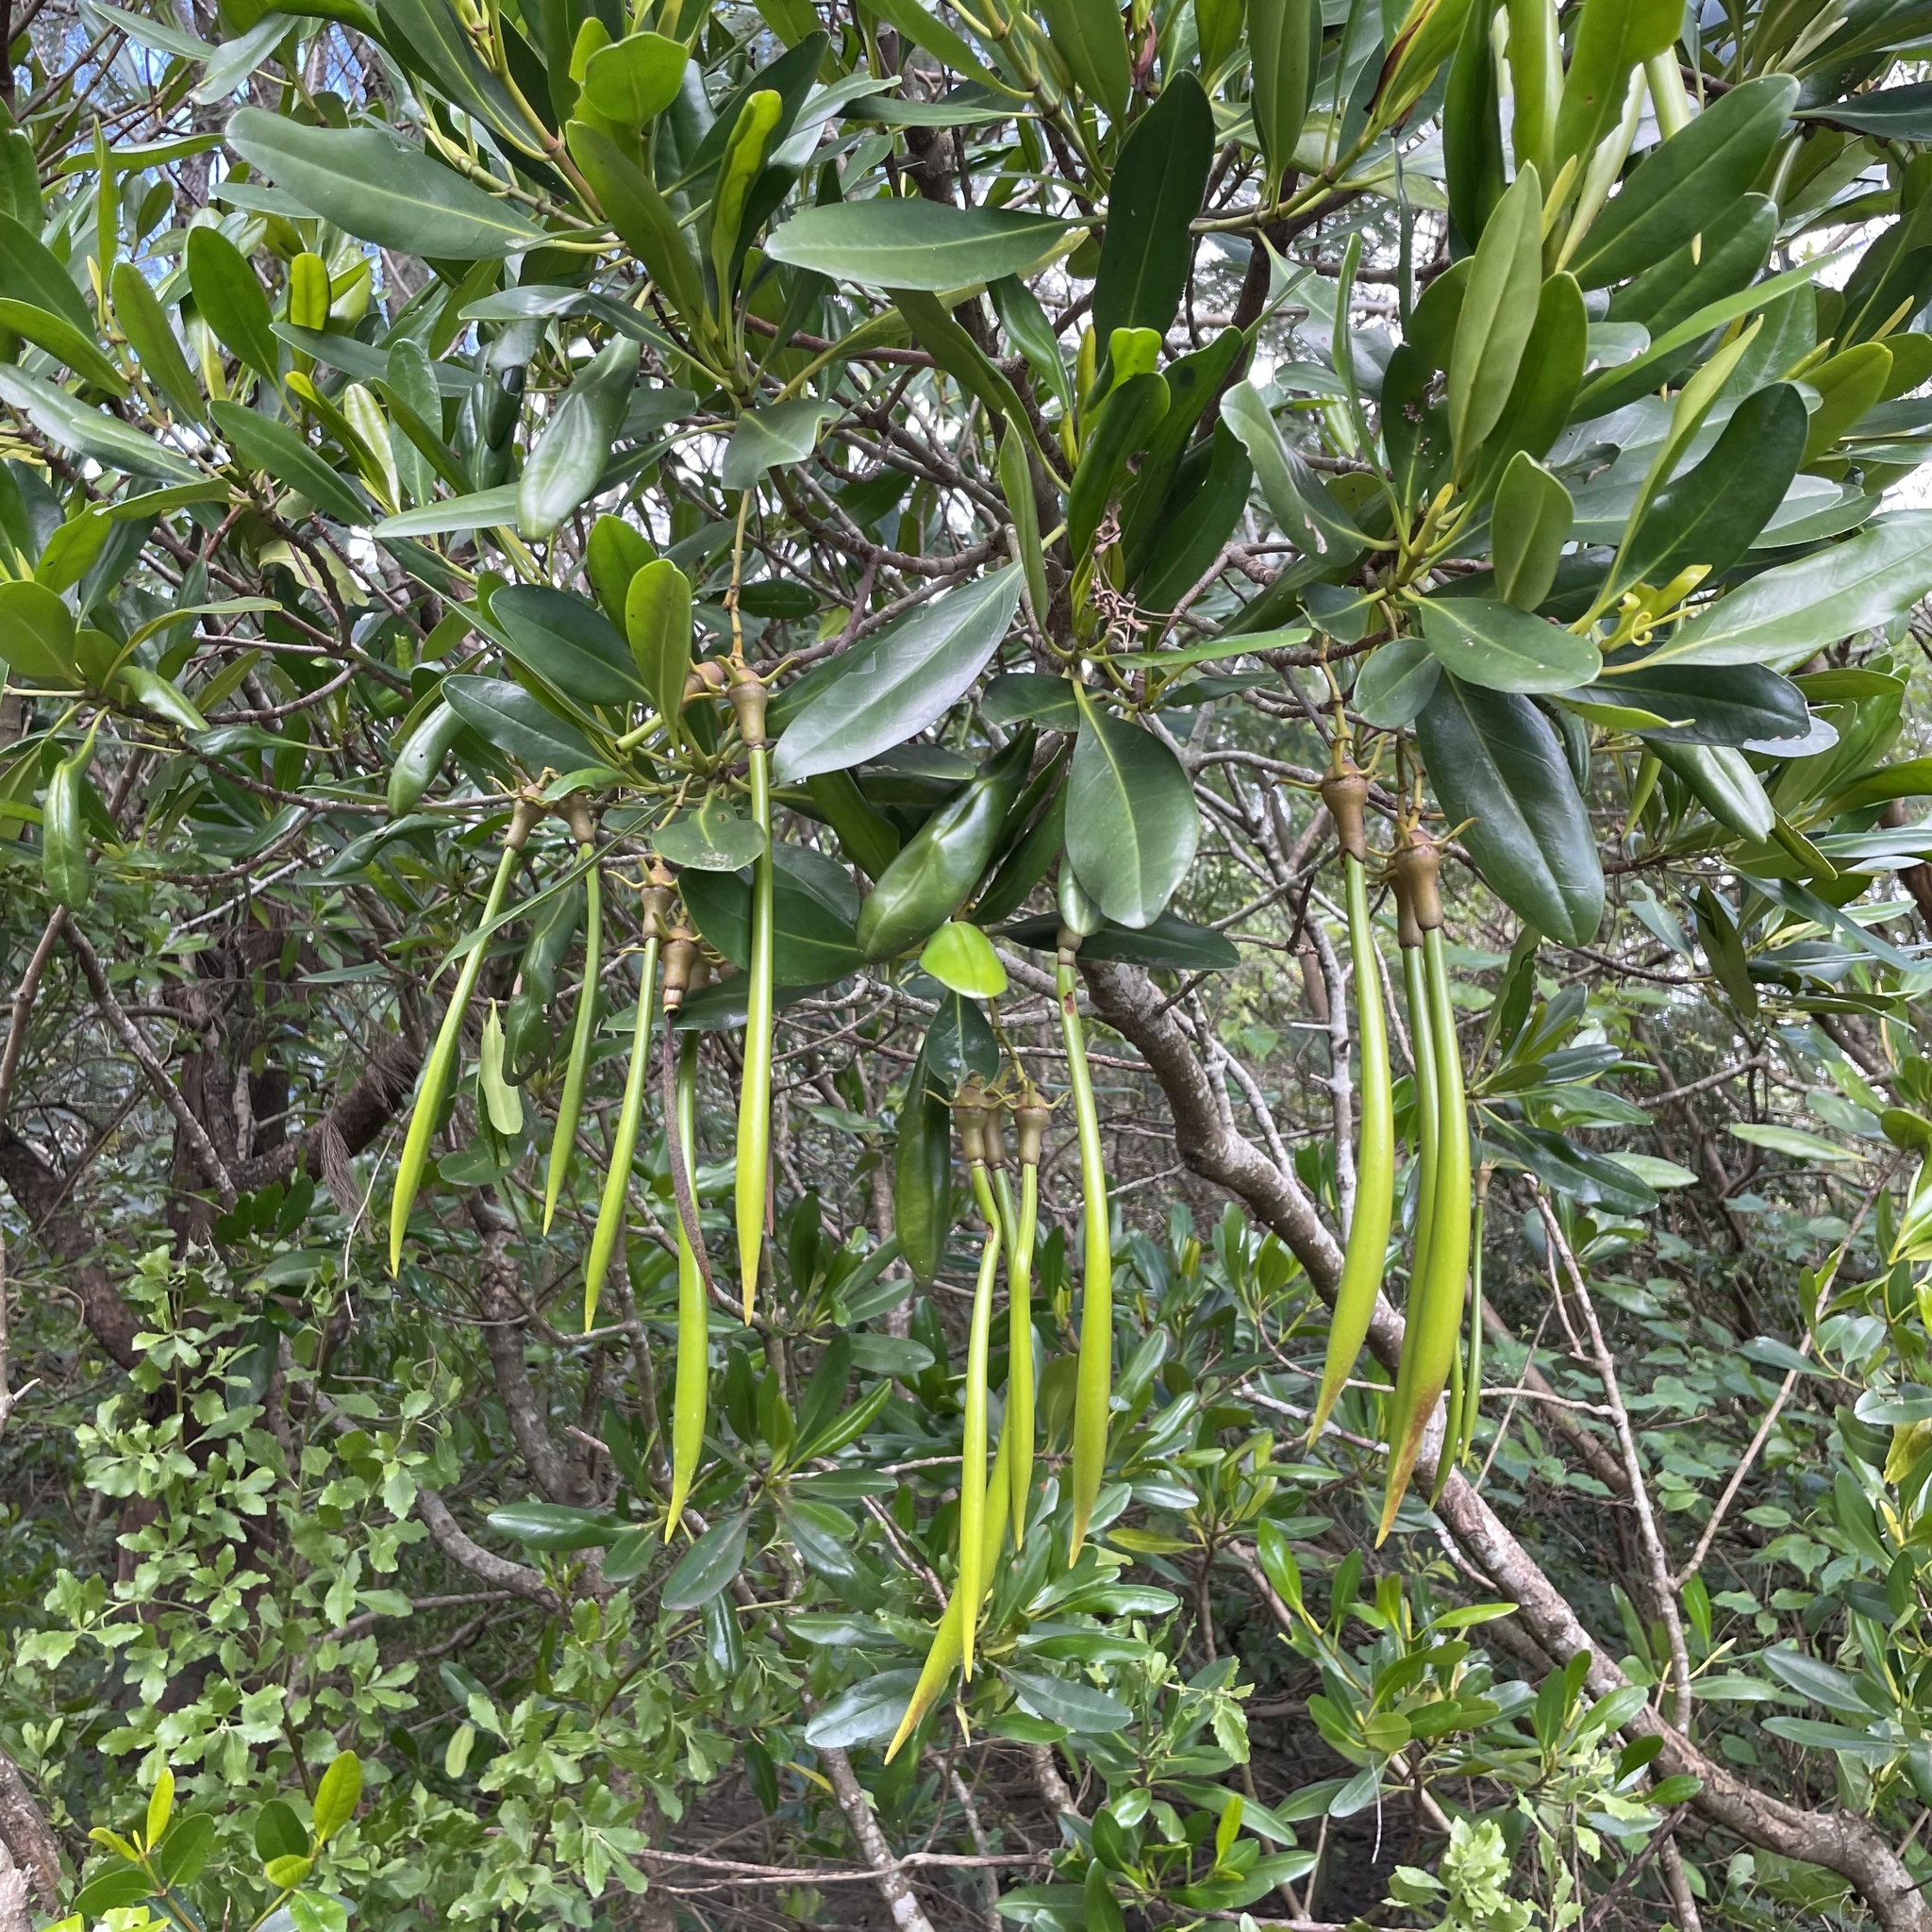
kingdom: Plantae
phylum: Tracheophyta
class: Magnoliopsida
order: Malpighiales
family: Rhizophoraceae
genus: Kandelia
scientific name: Kandelia obovata
